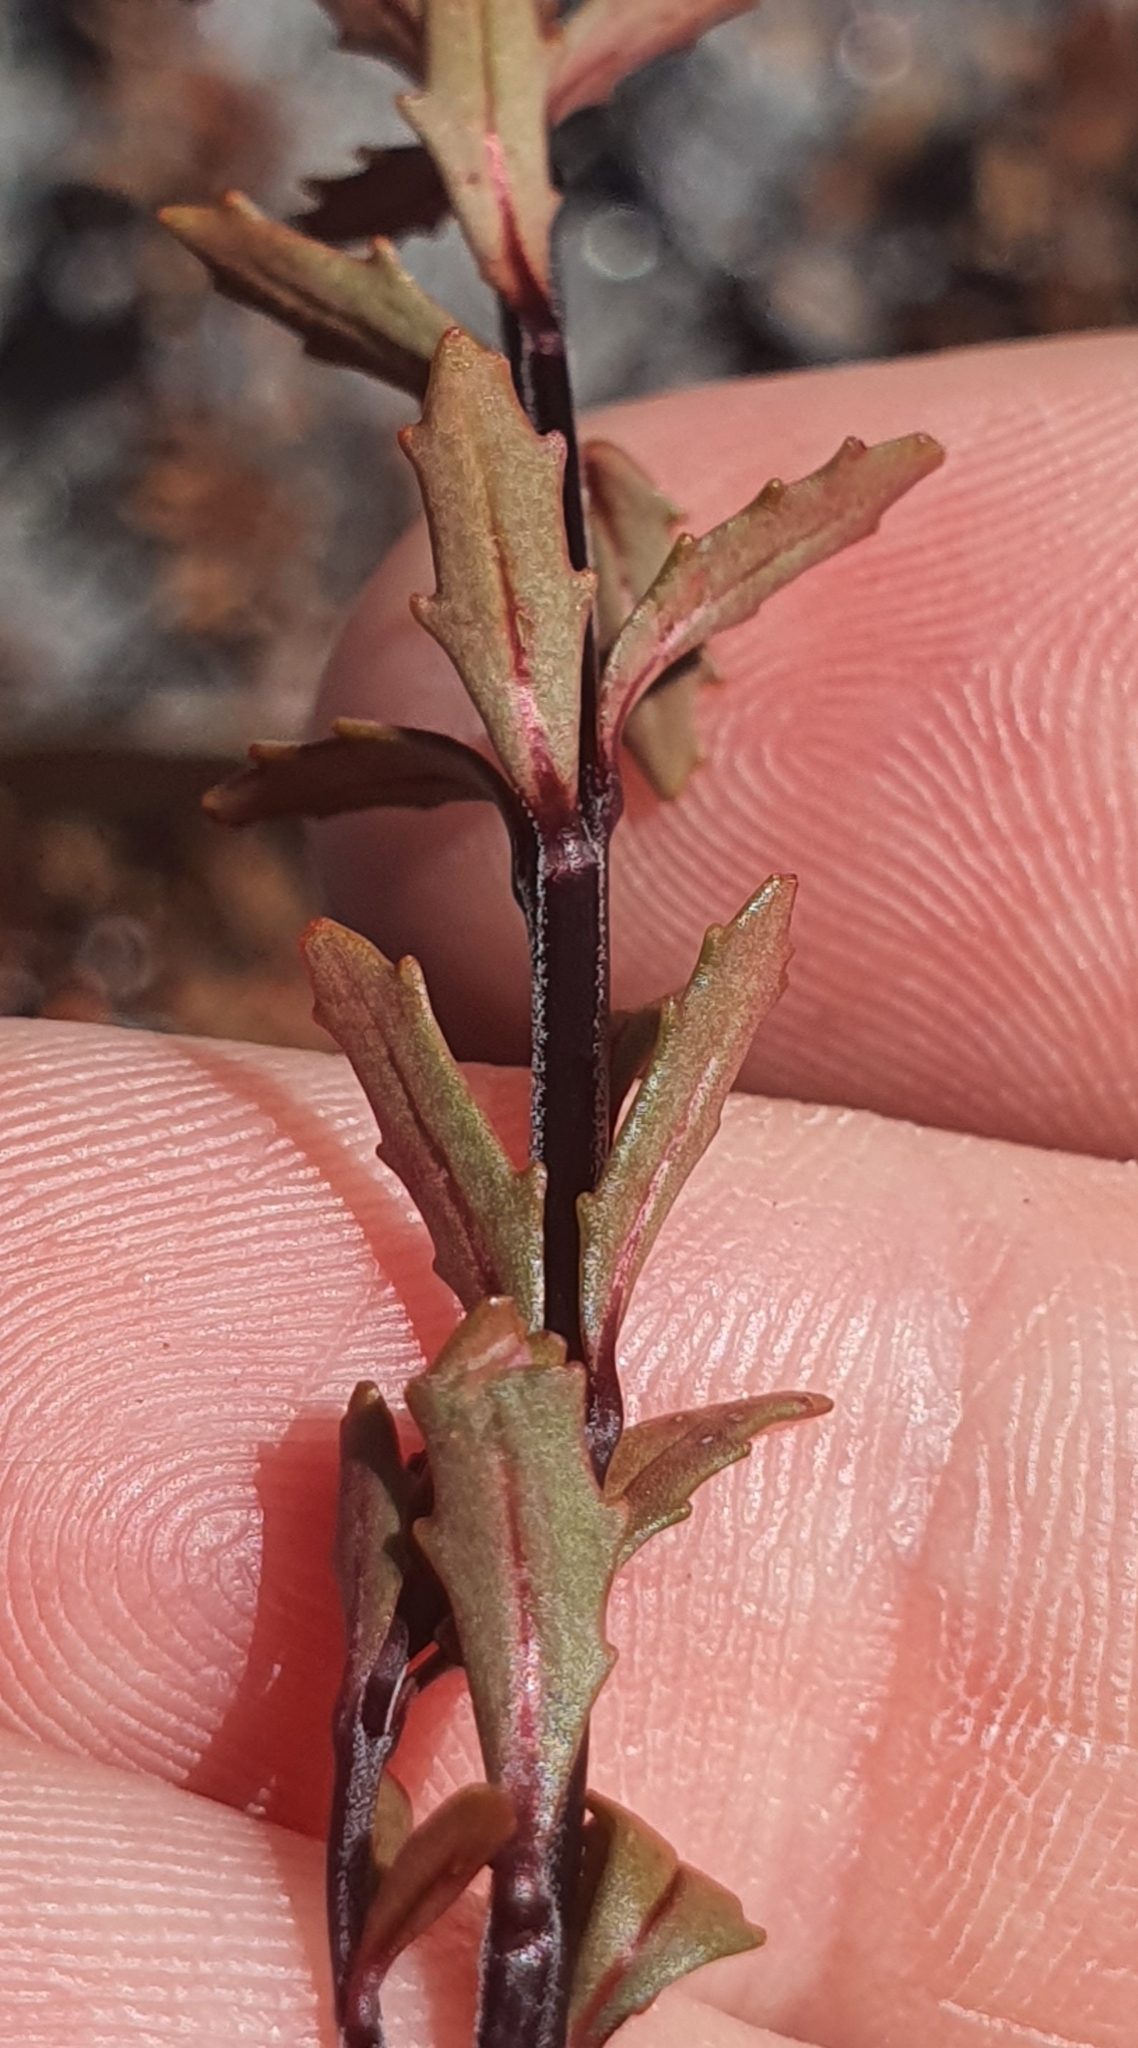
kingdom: Plantae
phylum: Tracheophyta
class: Magnoliopsida
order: Myrtales
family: Onagraceae
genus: Epilobium
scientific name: Epilobium melanocaulon
